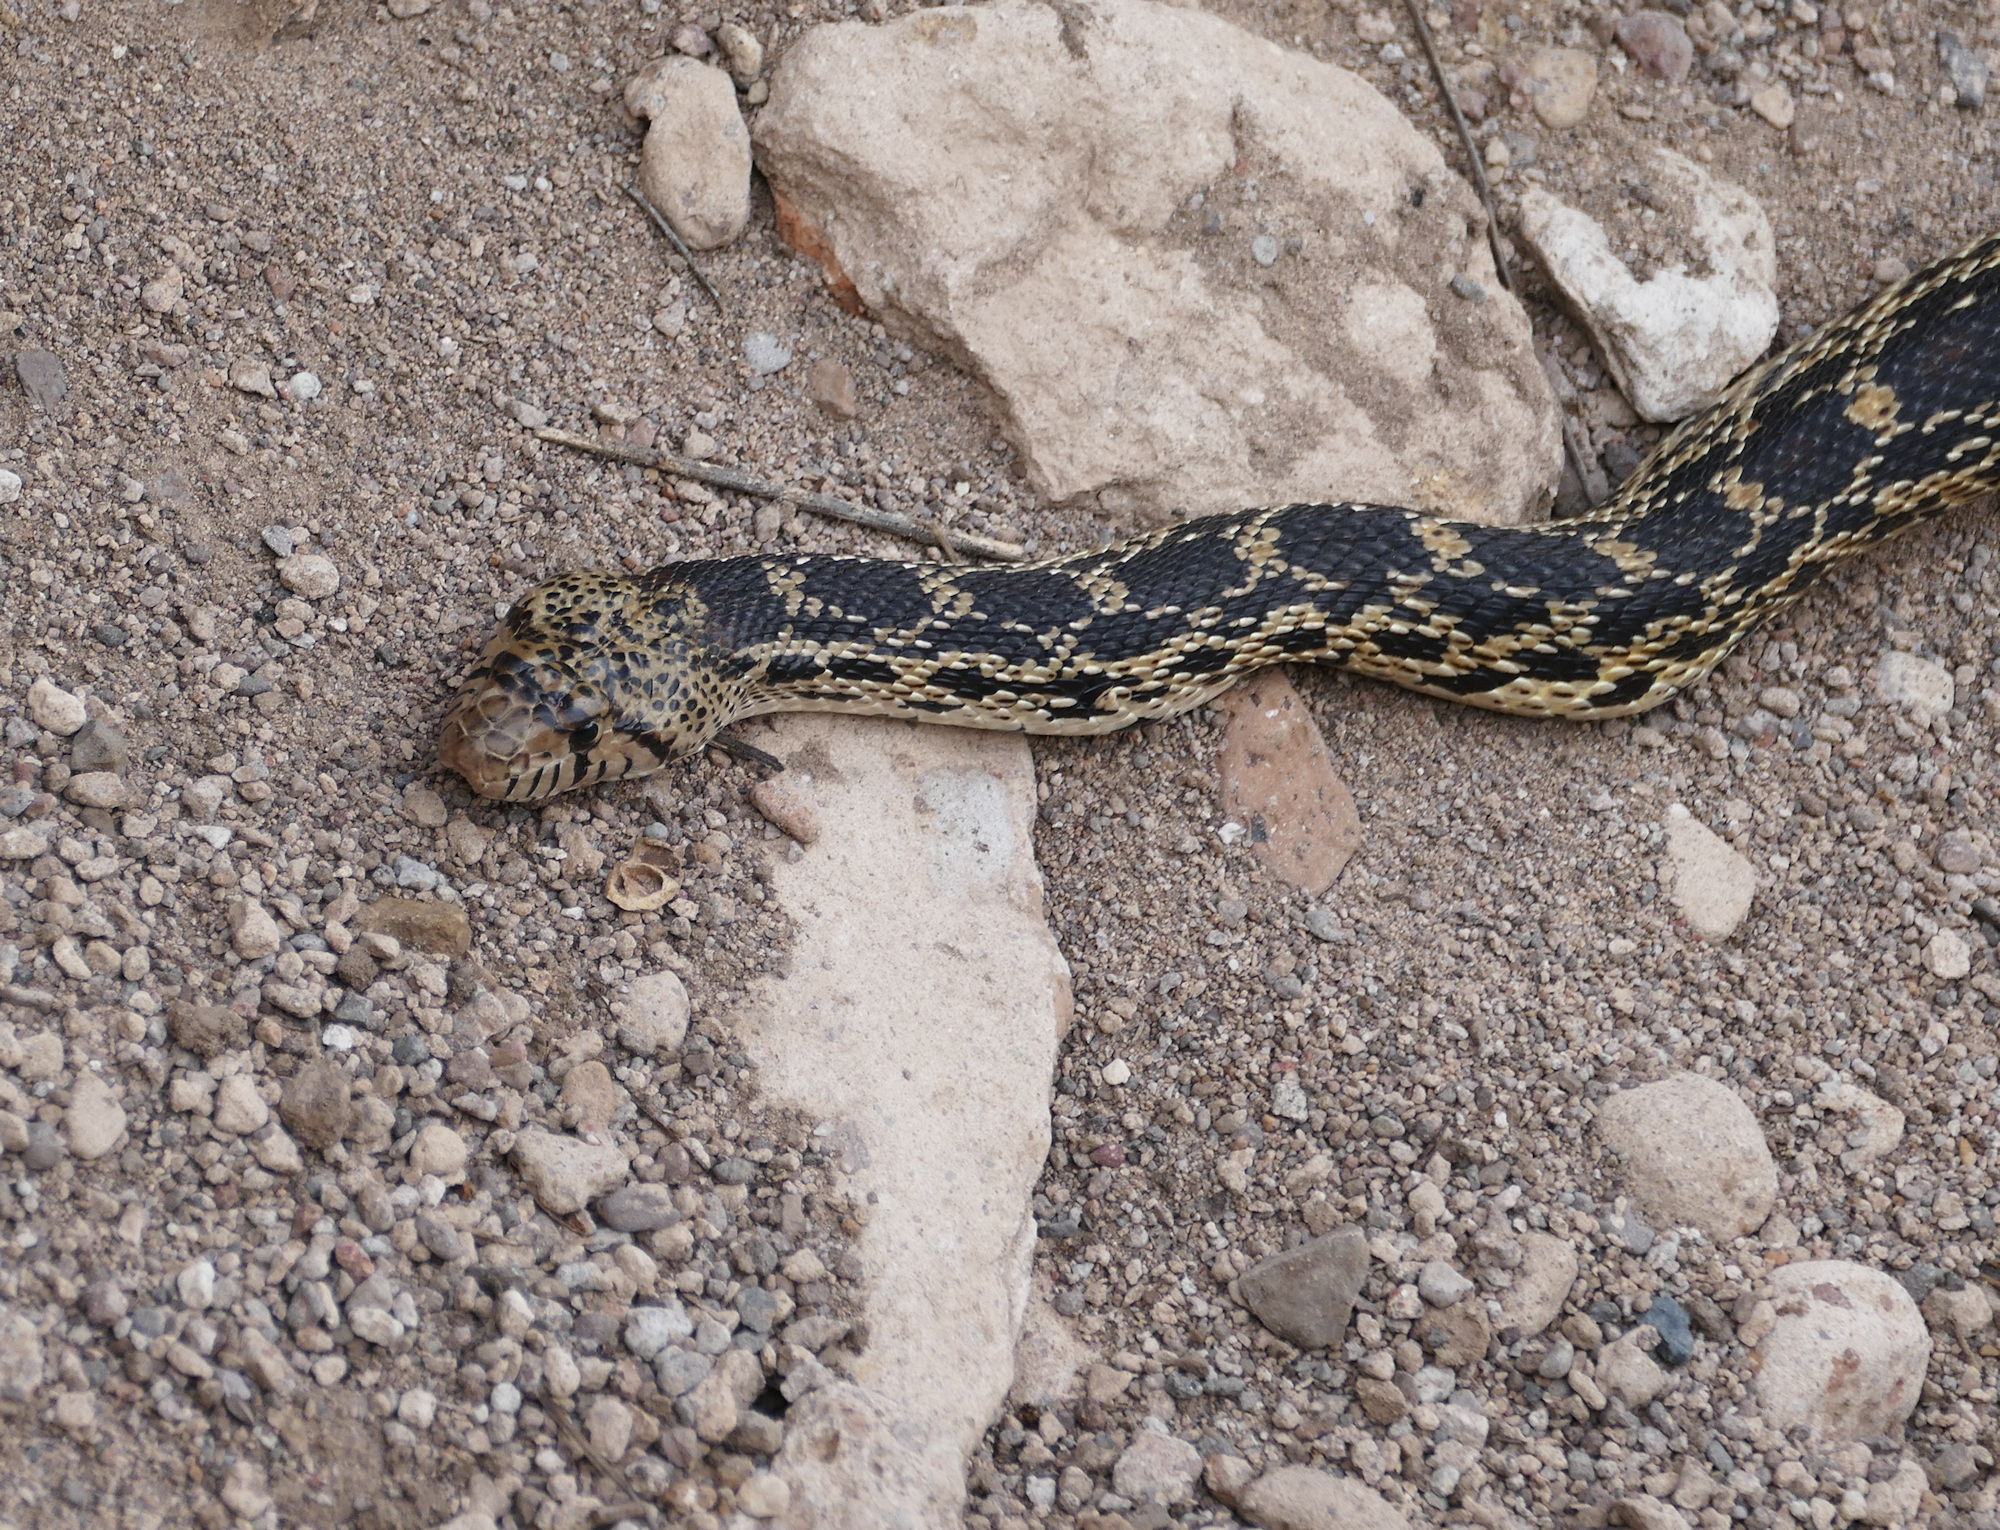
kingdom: Animalia
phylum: Chordata
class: Squamata
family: Colubridae
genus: Pituophis
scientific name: Pituophis catenifer
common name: Gopher snake
